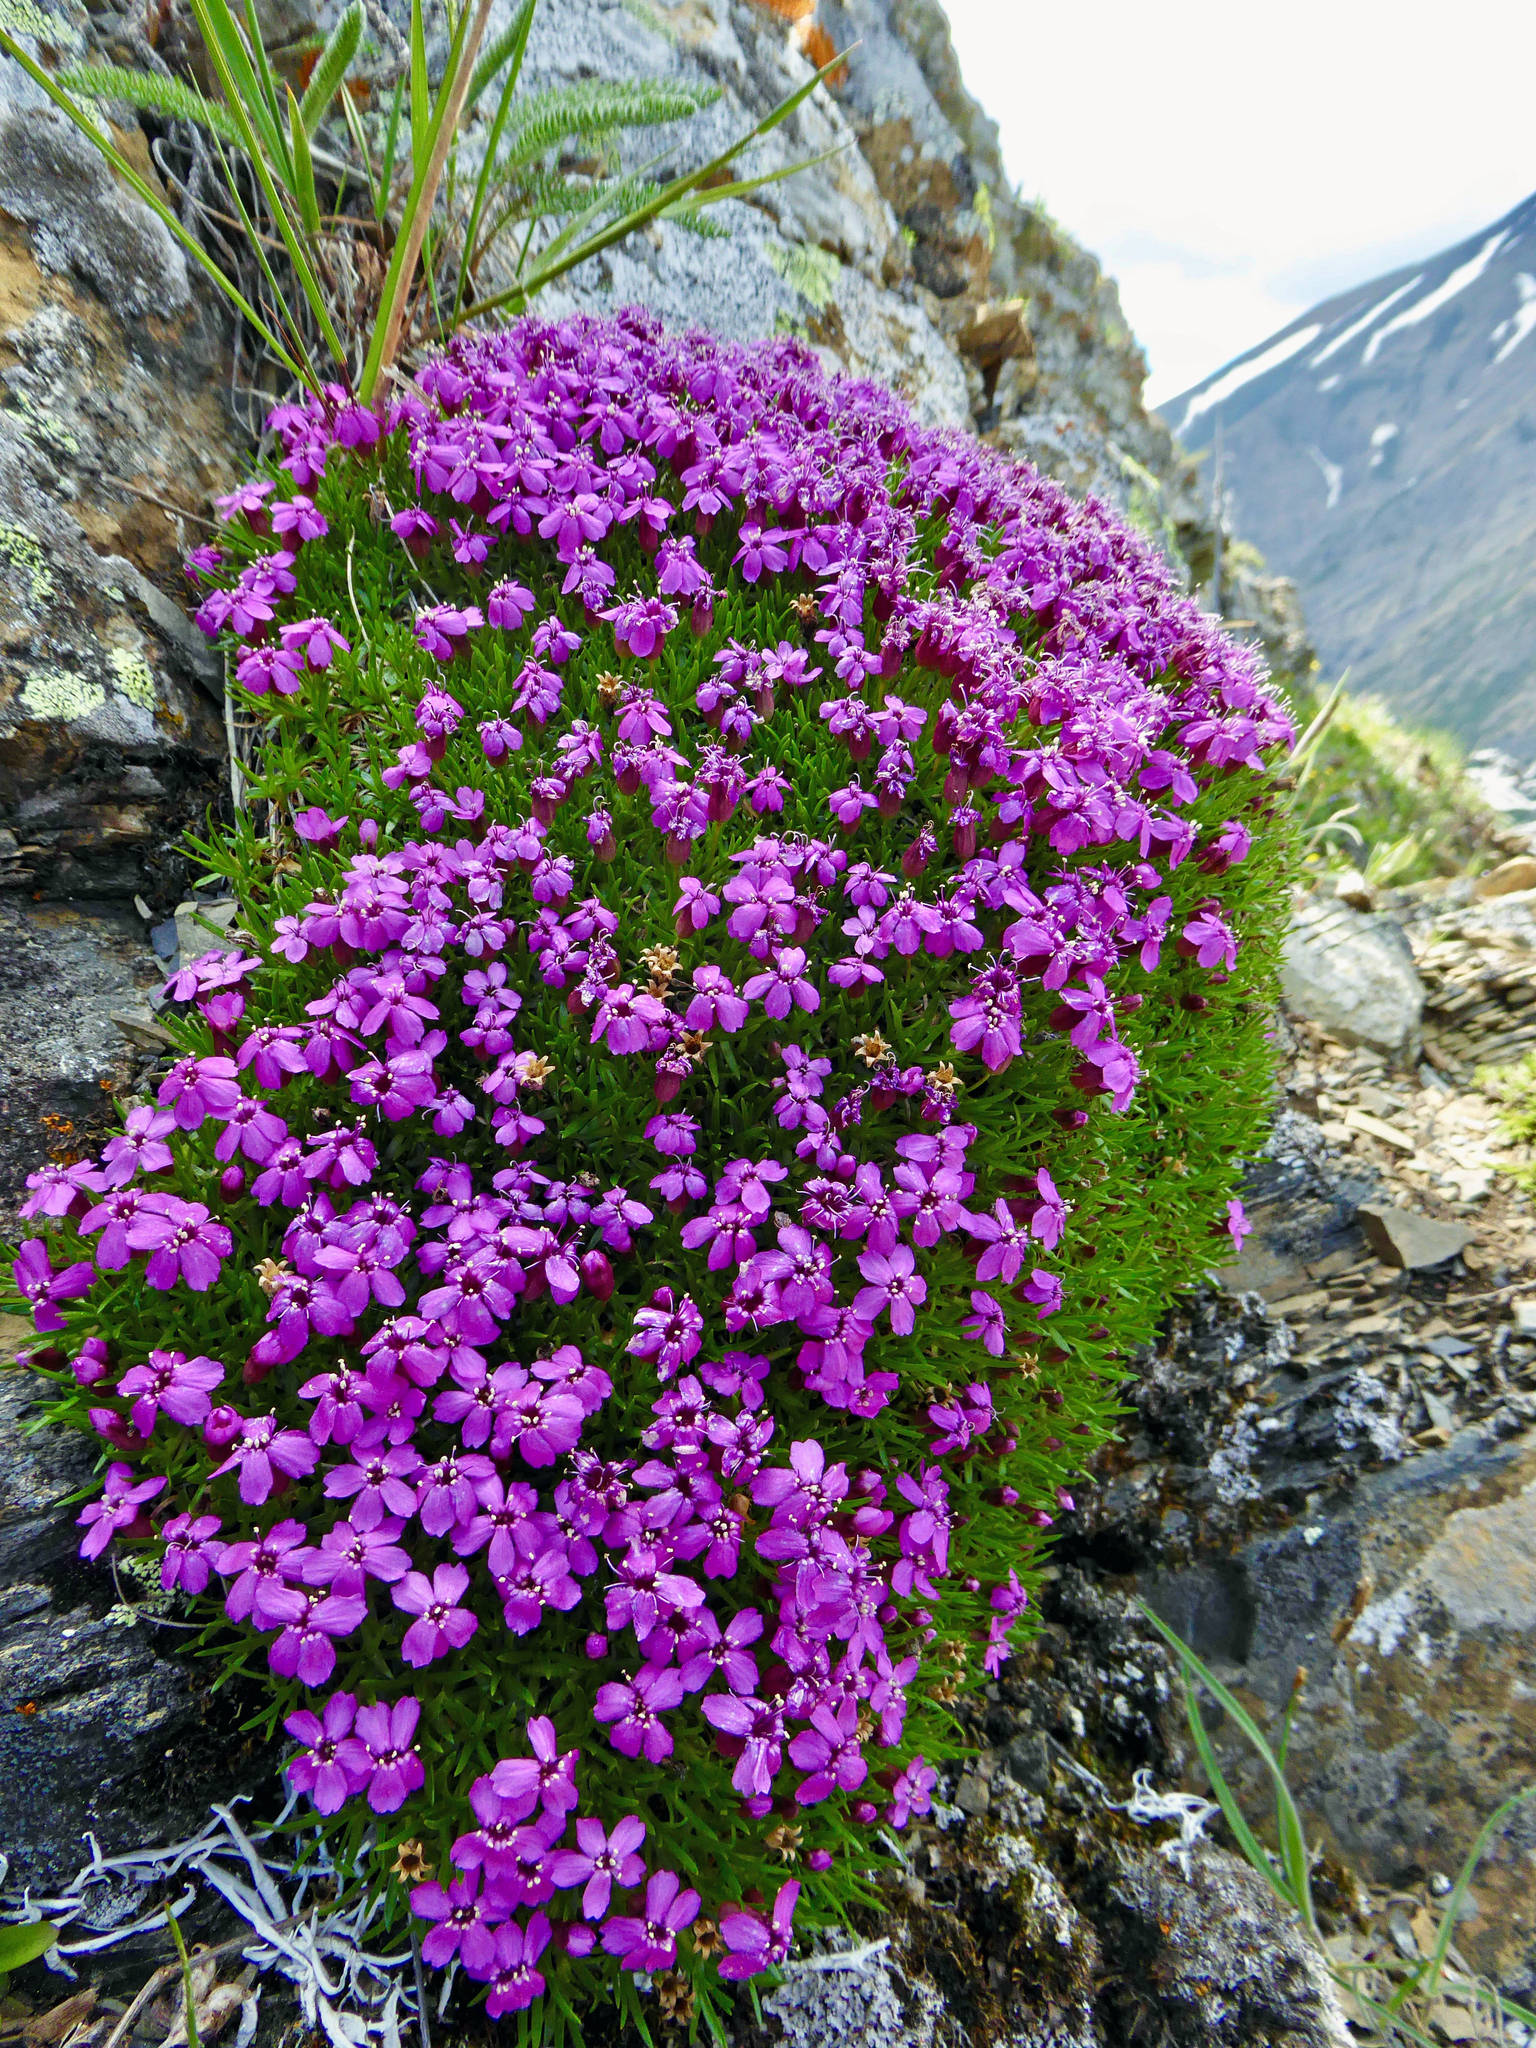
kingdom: Plantae
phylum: Tracheophyta
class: Magnoliopsida
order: Caryophyllales
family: Caryophyllaceae
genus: Silene
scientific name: Silene acaulis
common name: Moss campion
